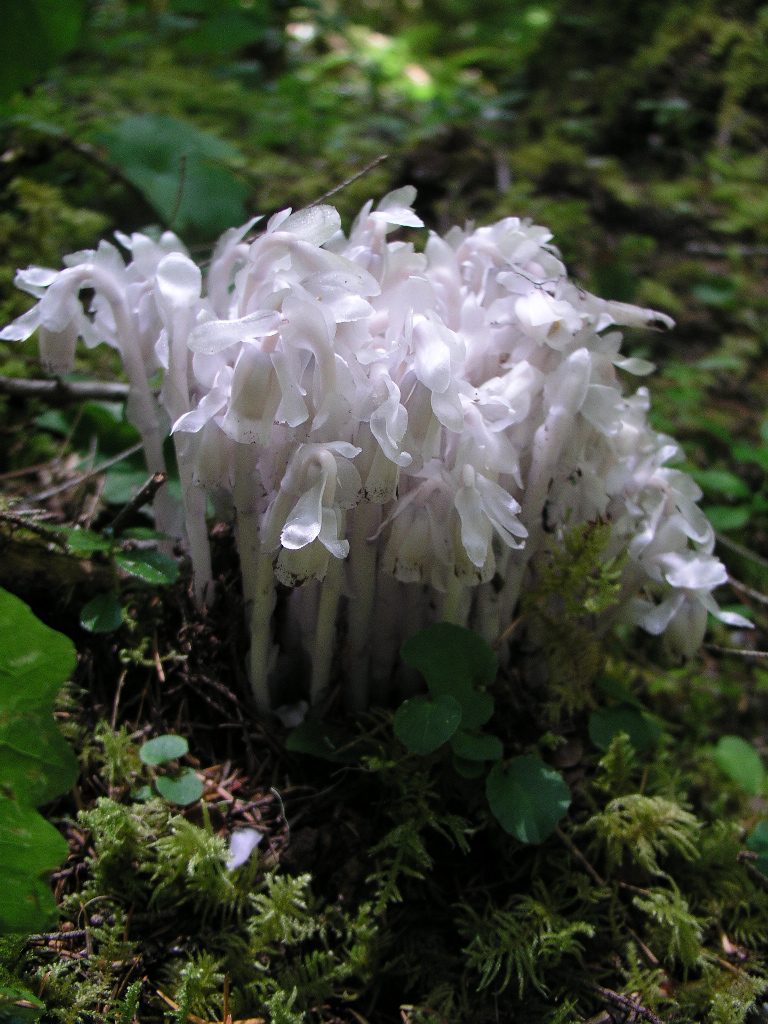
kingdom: Plantae
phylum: Tracheophyta
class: Magnoliopsida
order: Ericales
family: Ericaceae
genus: Monotropa
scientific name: Monotropa uniflora
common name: Convulsion root
